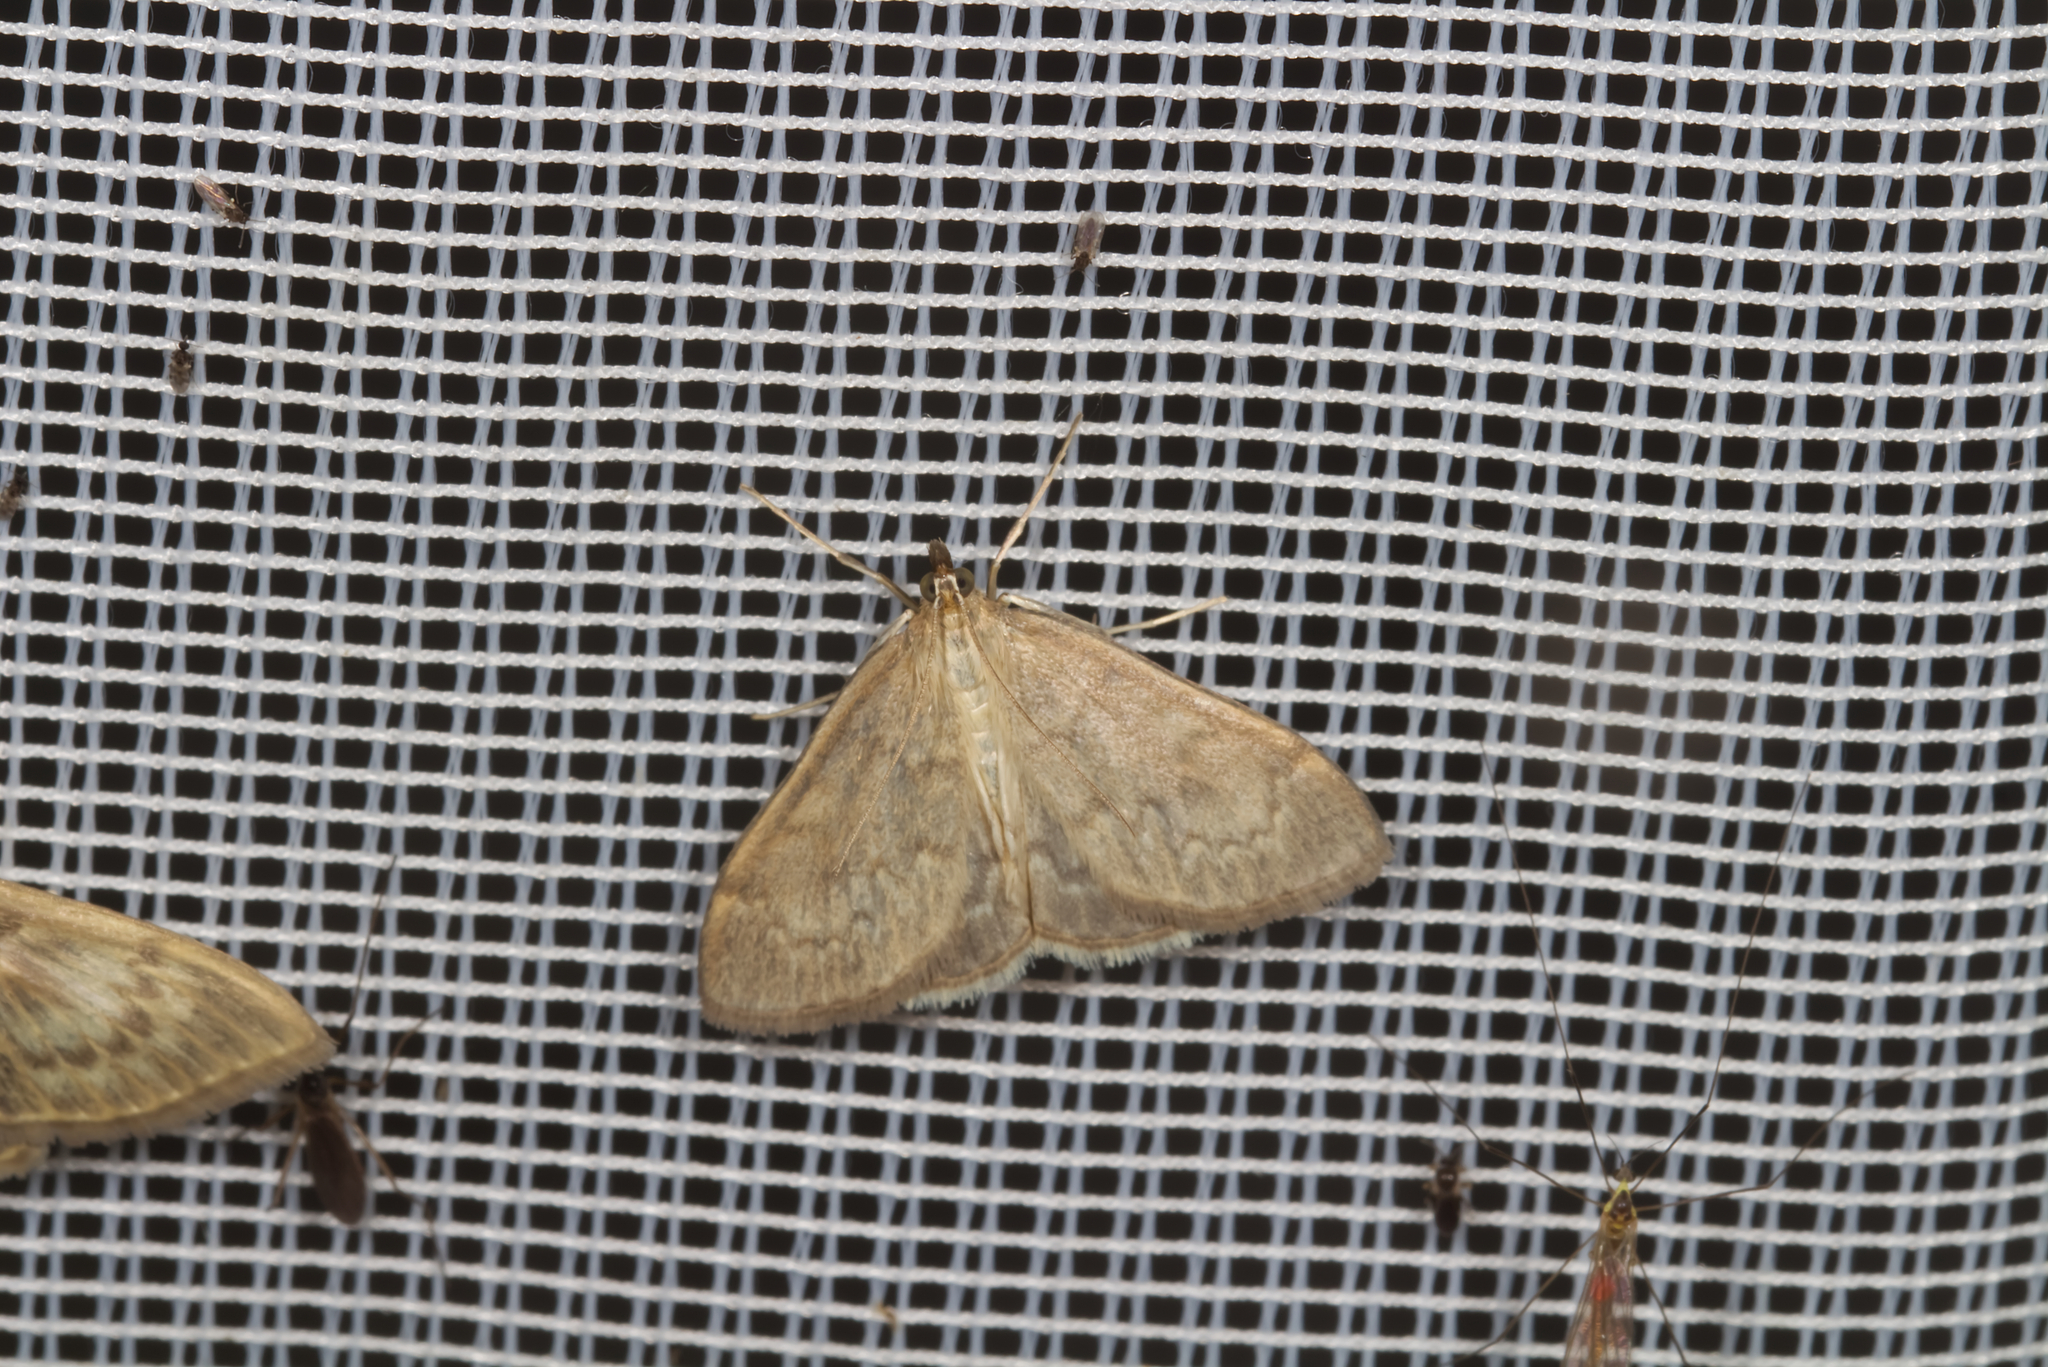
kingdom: Animalia
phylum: Arthropoda
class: Insecta
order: Lepidoptera
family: Crambidae
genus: Anania
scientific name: Anania fuscalis
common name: Cinerous pearl
